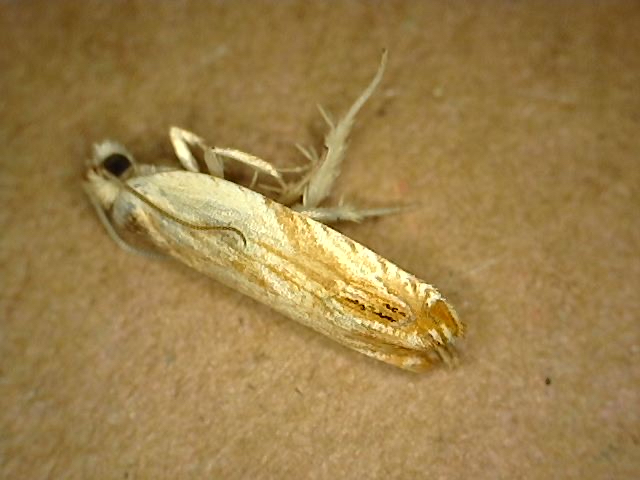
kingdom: Animalia
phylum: Arthropoda
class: Insecta
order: Lepidoptera
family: Tortricidae
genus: Ancylis
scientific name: Ancylis platanana
